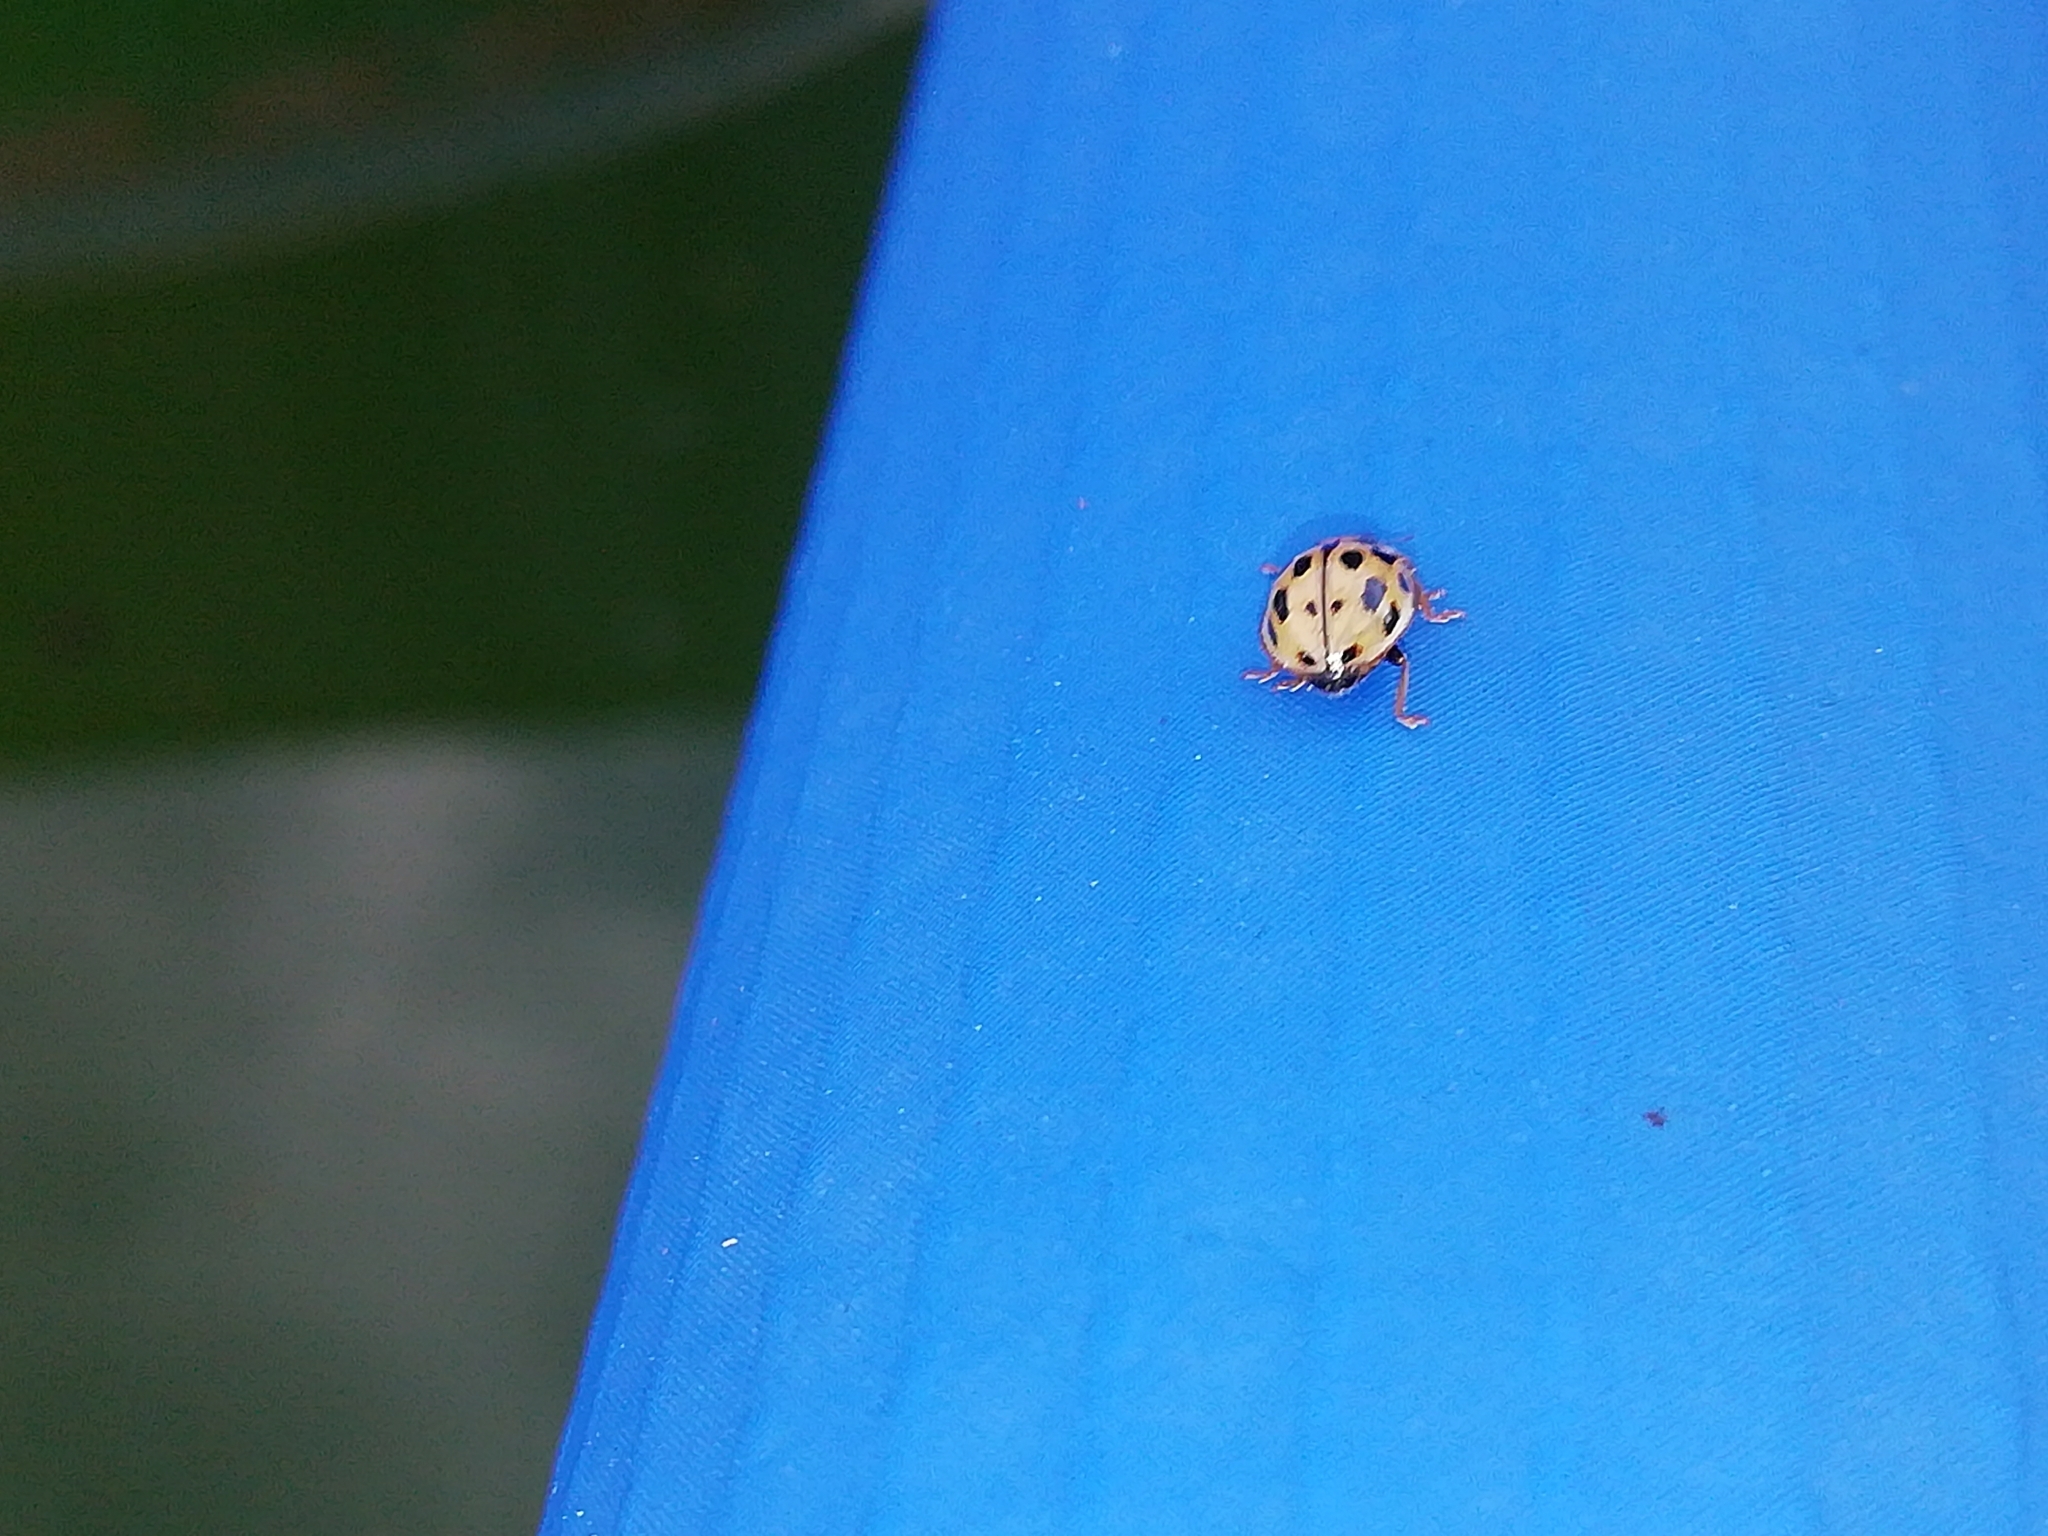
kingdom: Animalia
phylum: Arthropoda
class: Insecta
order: Coleoptera
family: Coccinellidae
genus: Propylaea
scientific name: Propylaea quatuordecimpunctata
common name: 14-spotted ladybird beetle
